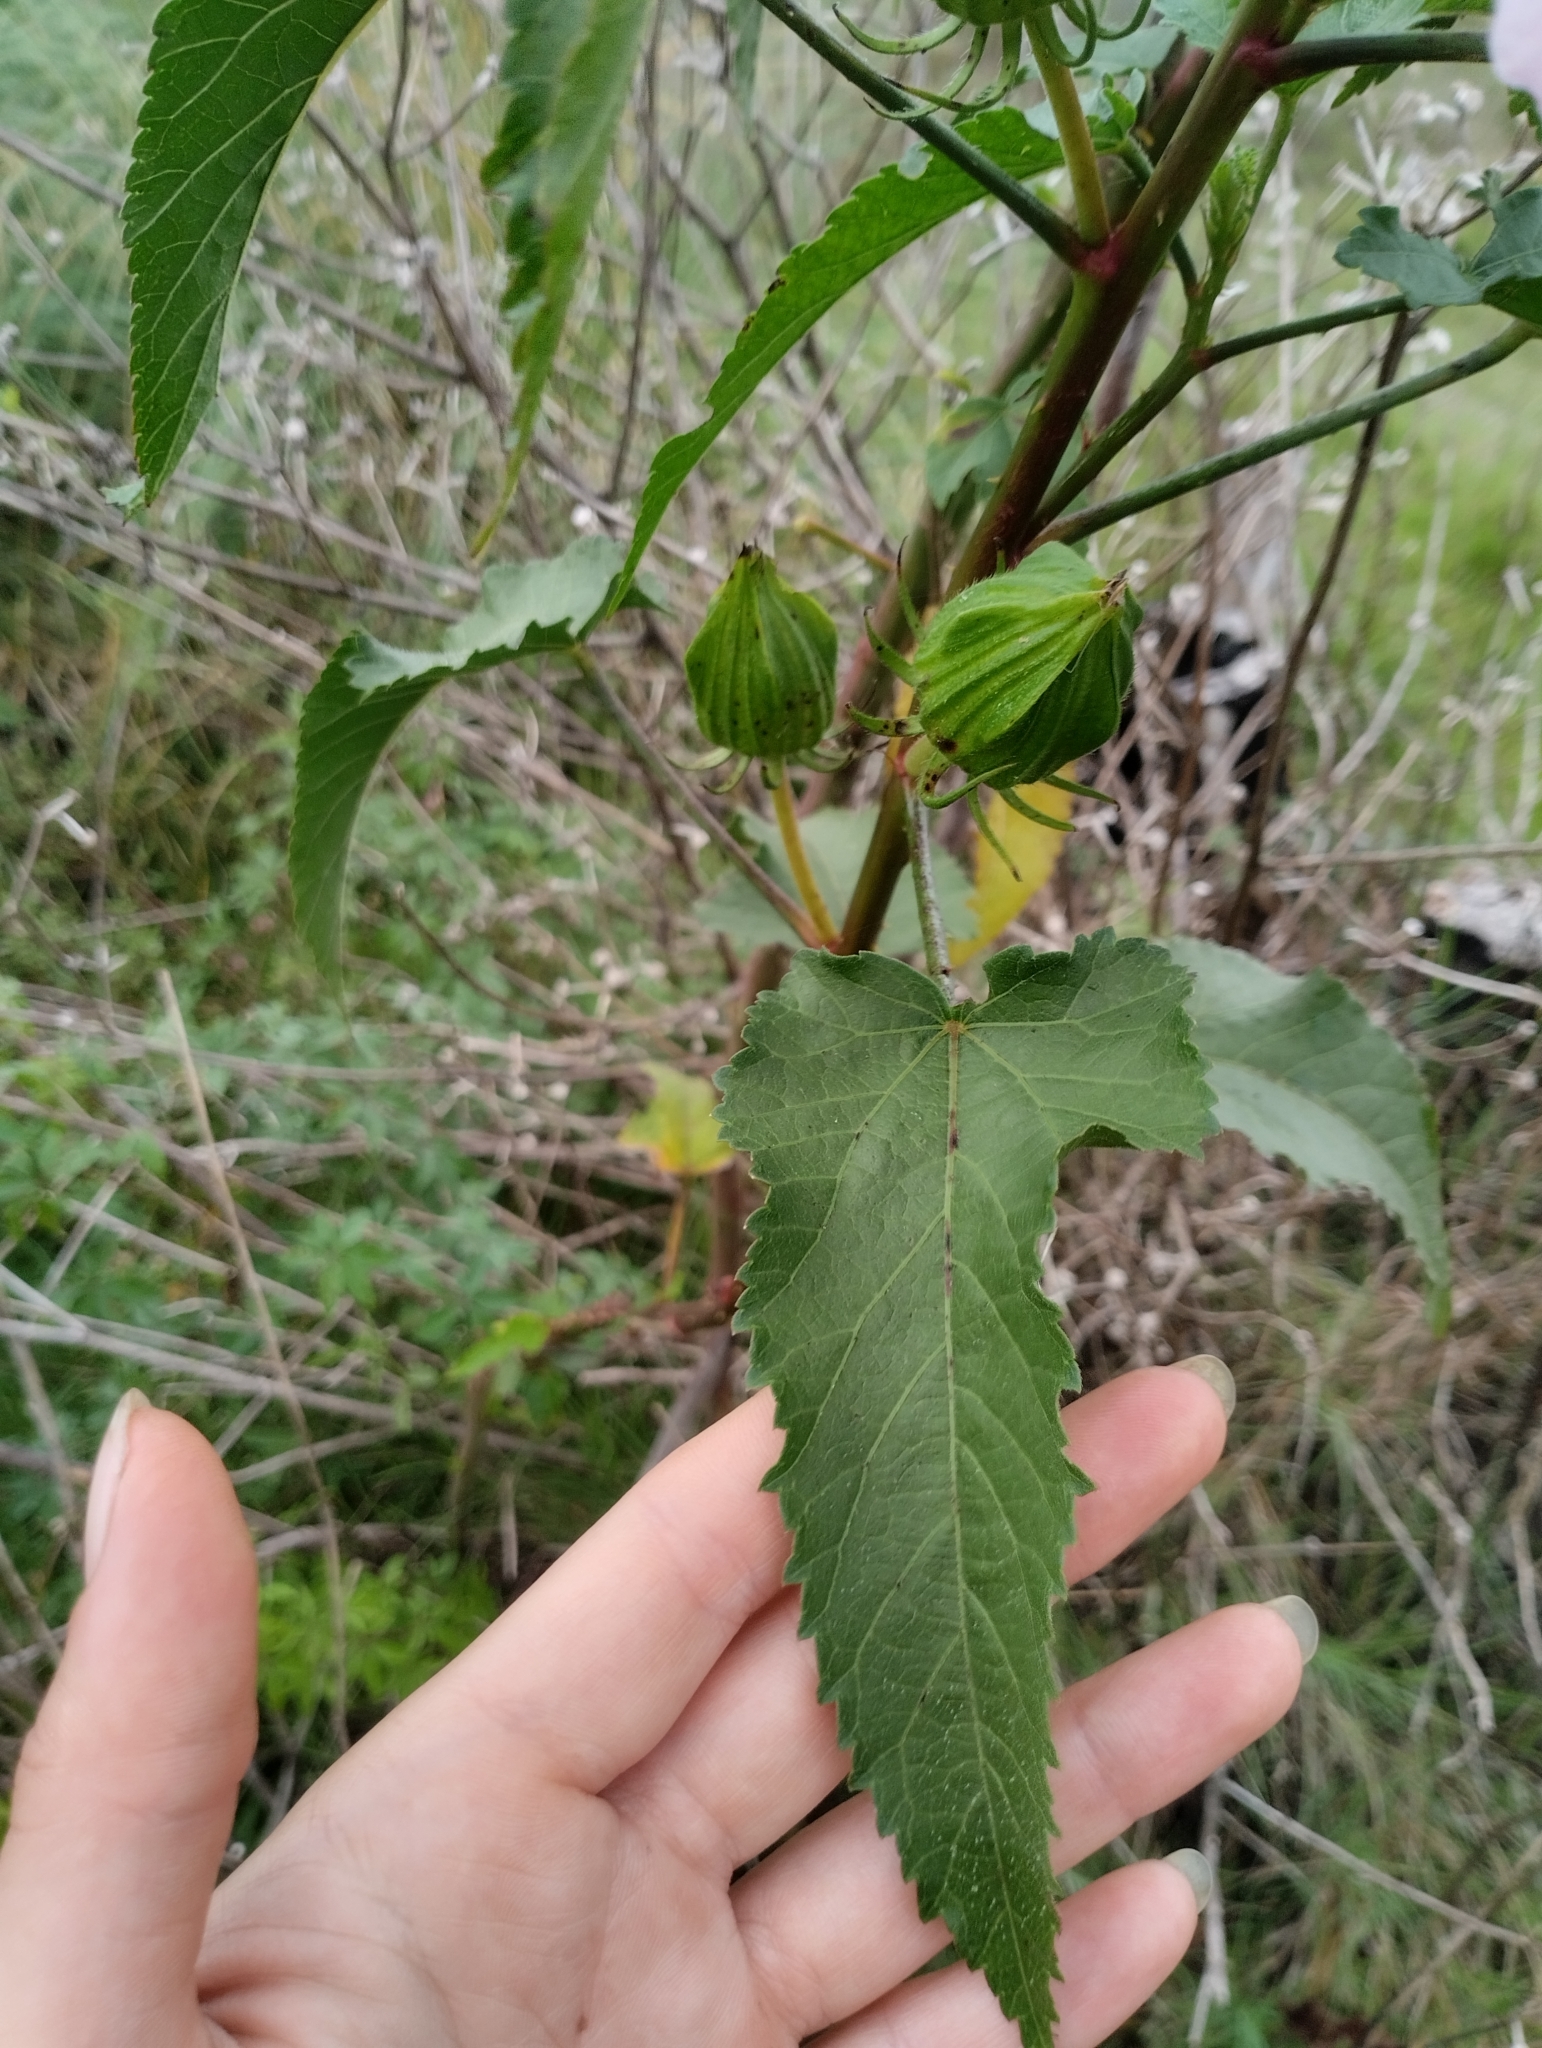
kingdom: Plantae
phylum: Tracheophyta
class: Magnoliopsida
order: Malvales
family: Malvaceae
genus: Hibiscus
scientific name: Hibiscus striatus
